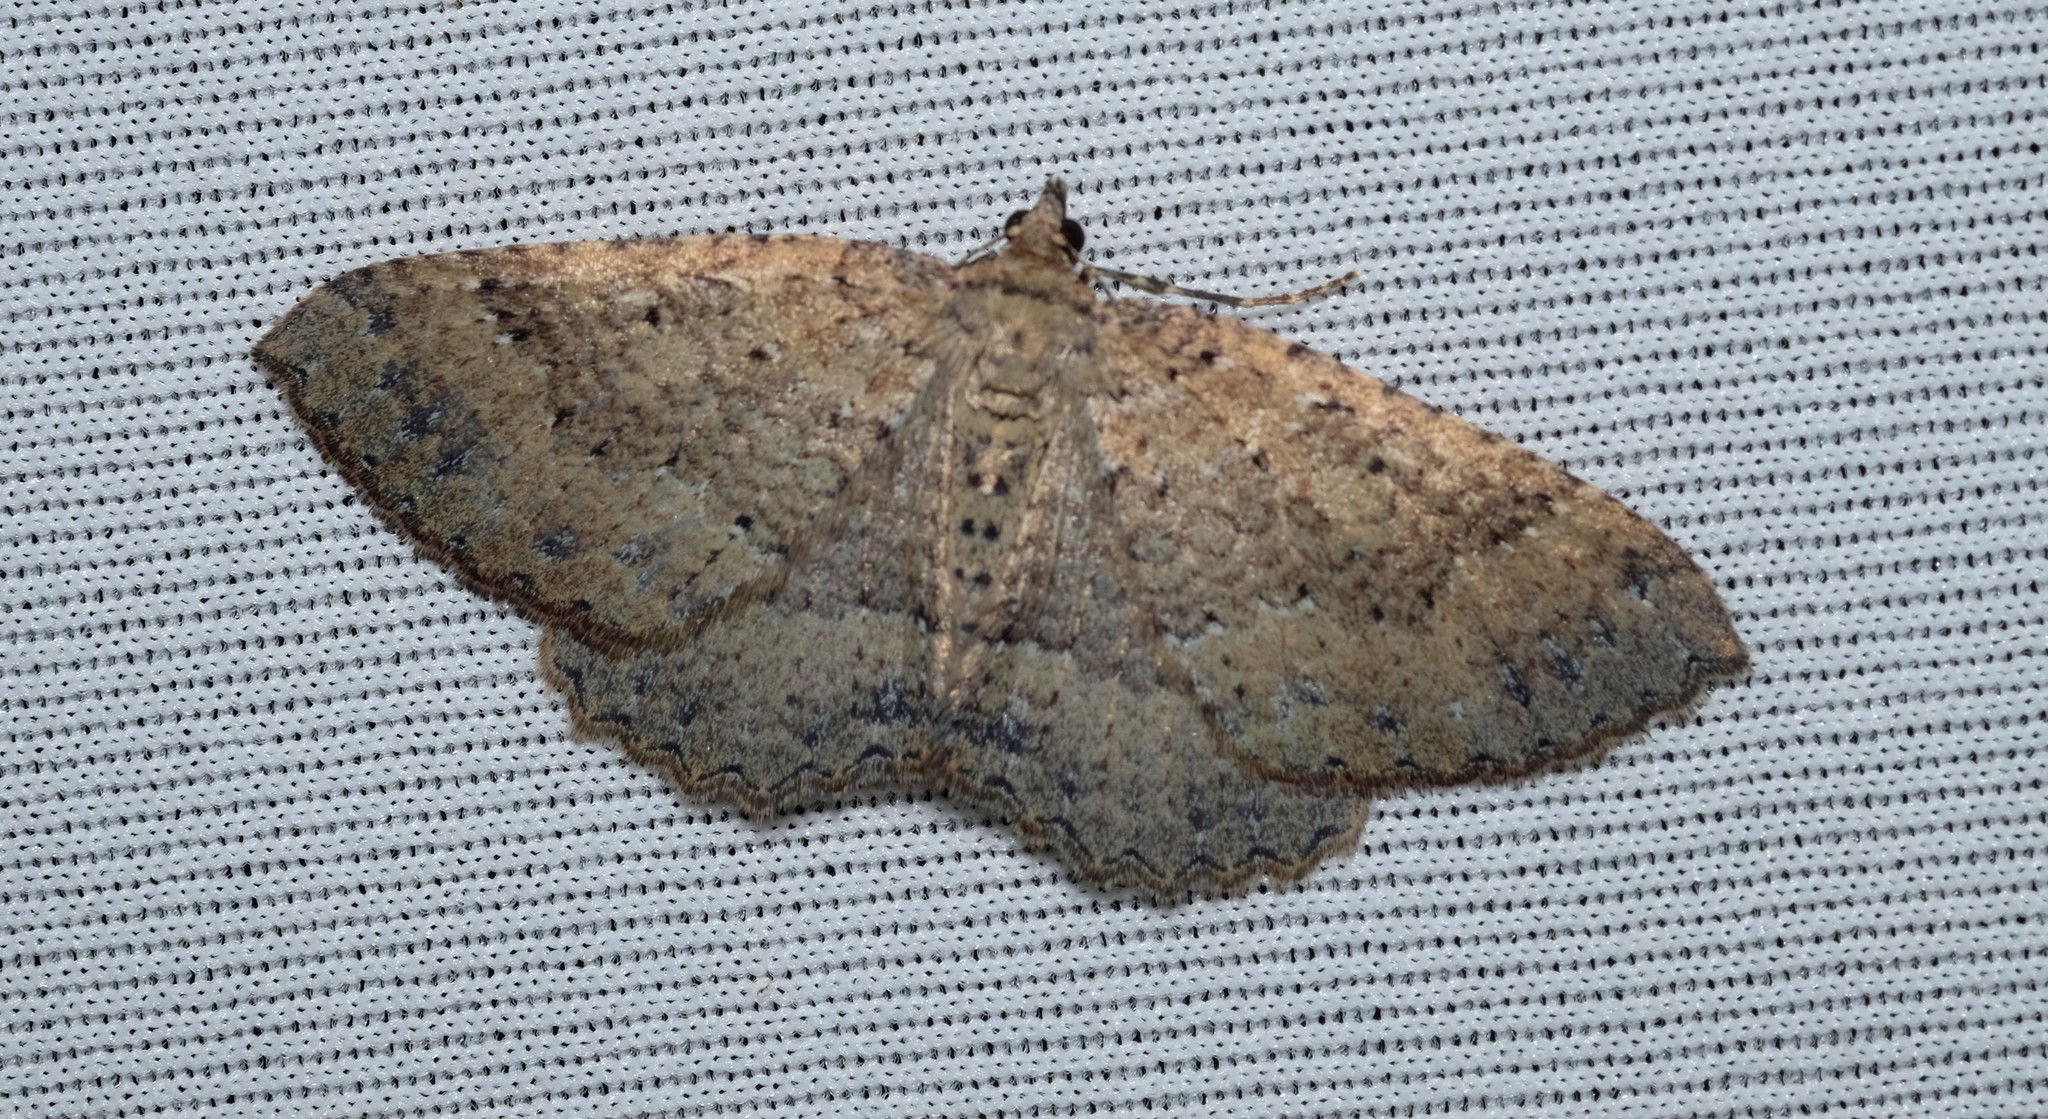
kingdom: Animalia
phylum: Arthropoda
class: Insecta
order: Lepidoptera
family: Geometridae
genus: Acodia
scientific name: Acodia pauper
